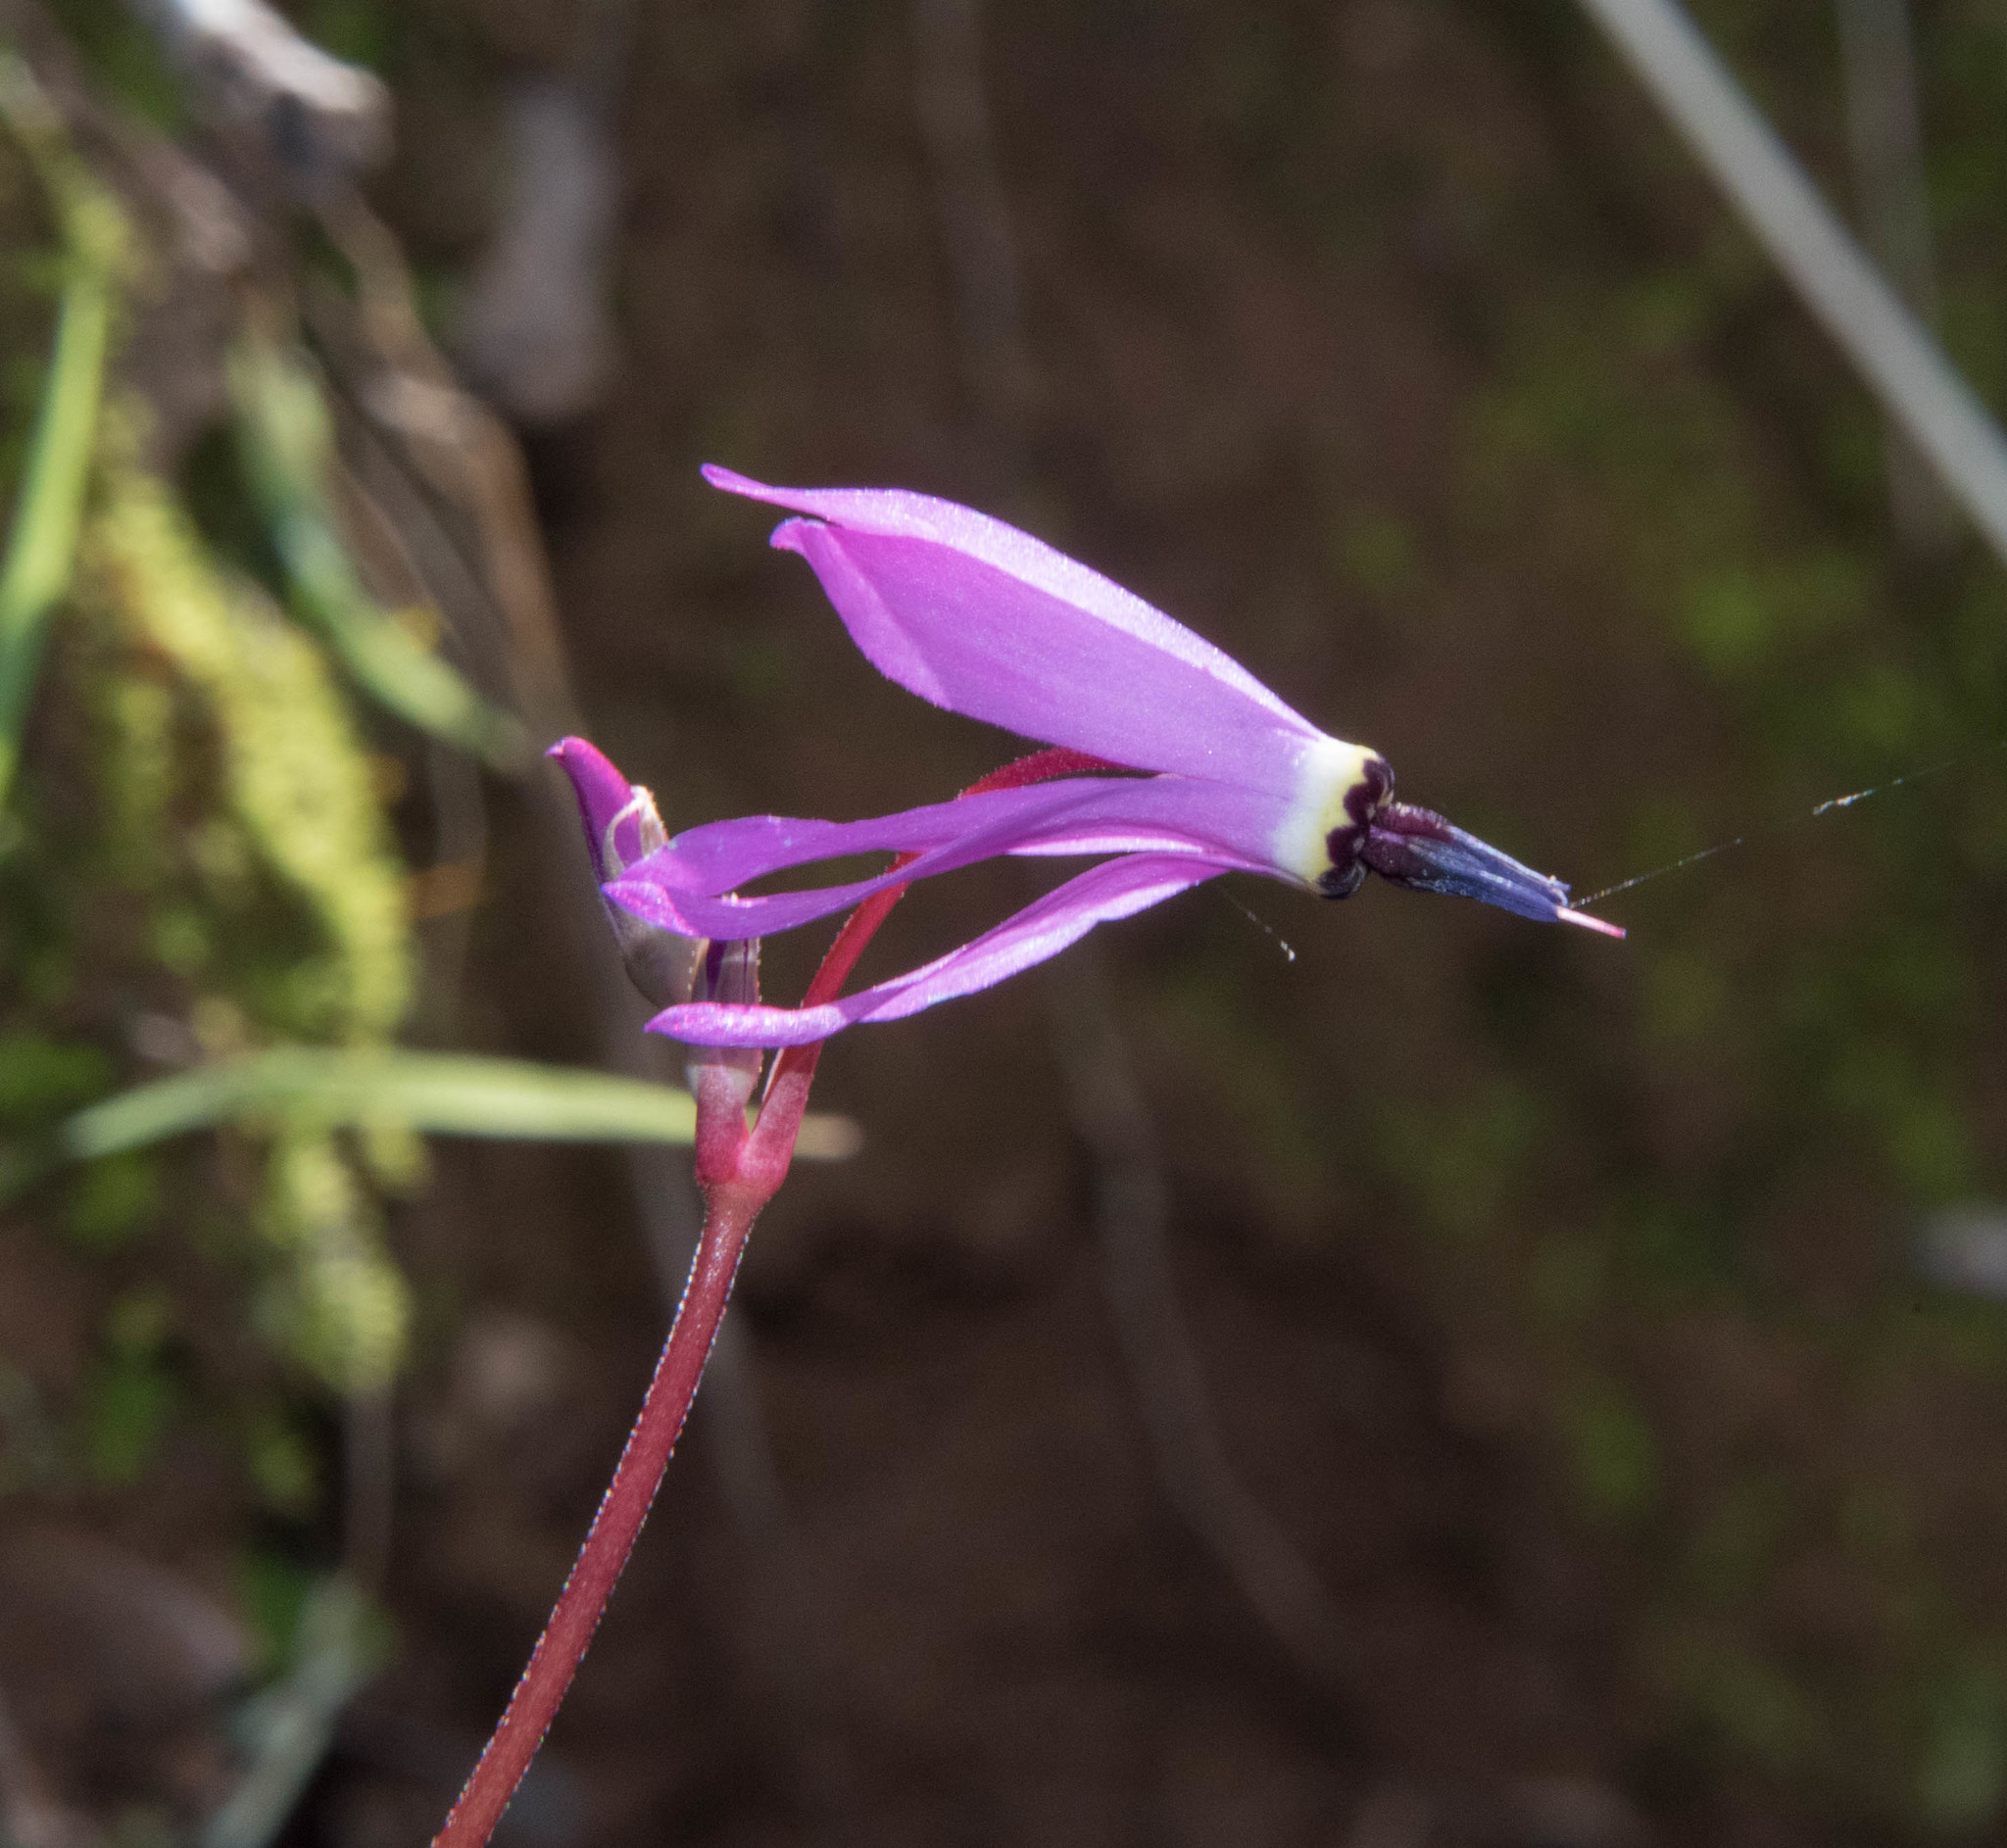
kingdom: Plantae
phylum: Tracheophyta
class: Magnoliopsida
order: Ericales
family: Primulaceae
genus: Dodecatheon
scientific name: Dodecatheon hendersonii
